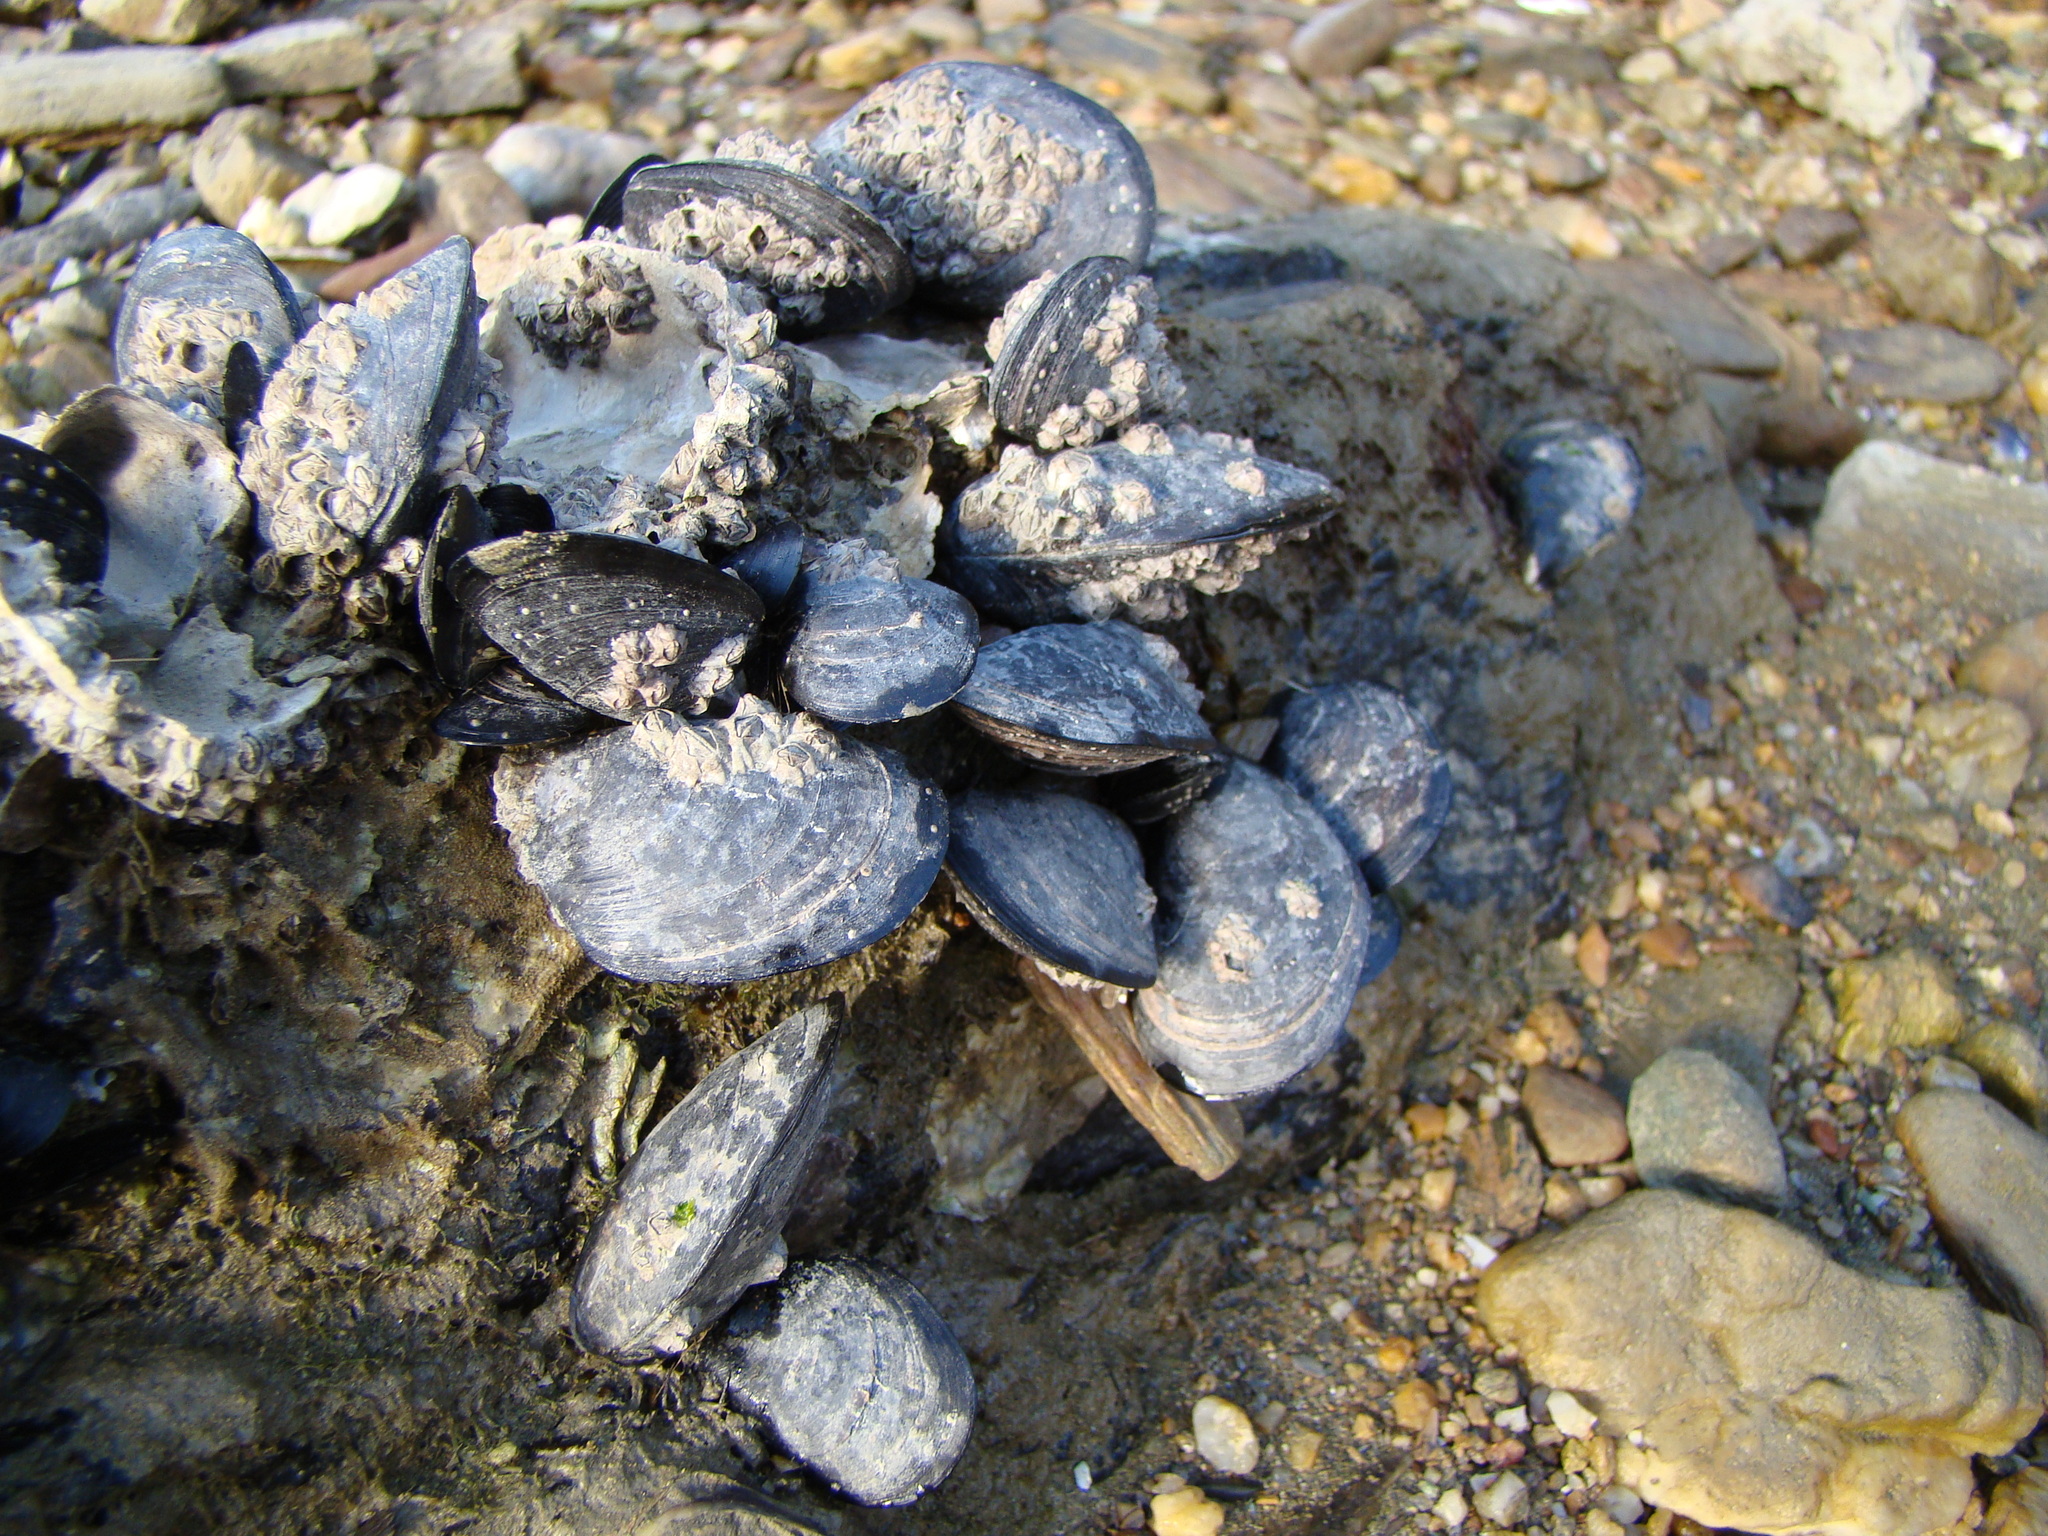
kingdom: Animalia
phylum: Mollusca
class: Bivalvia
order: Mytilida
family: Mytilidae
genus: Mytilus
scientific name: Mytilus planulatus
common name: Australian mussel
